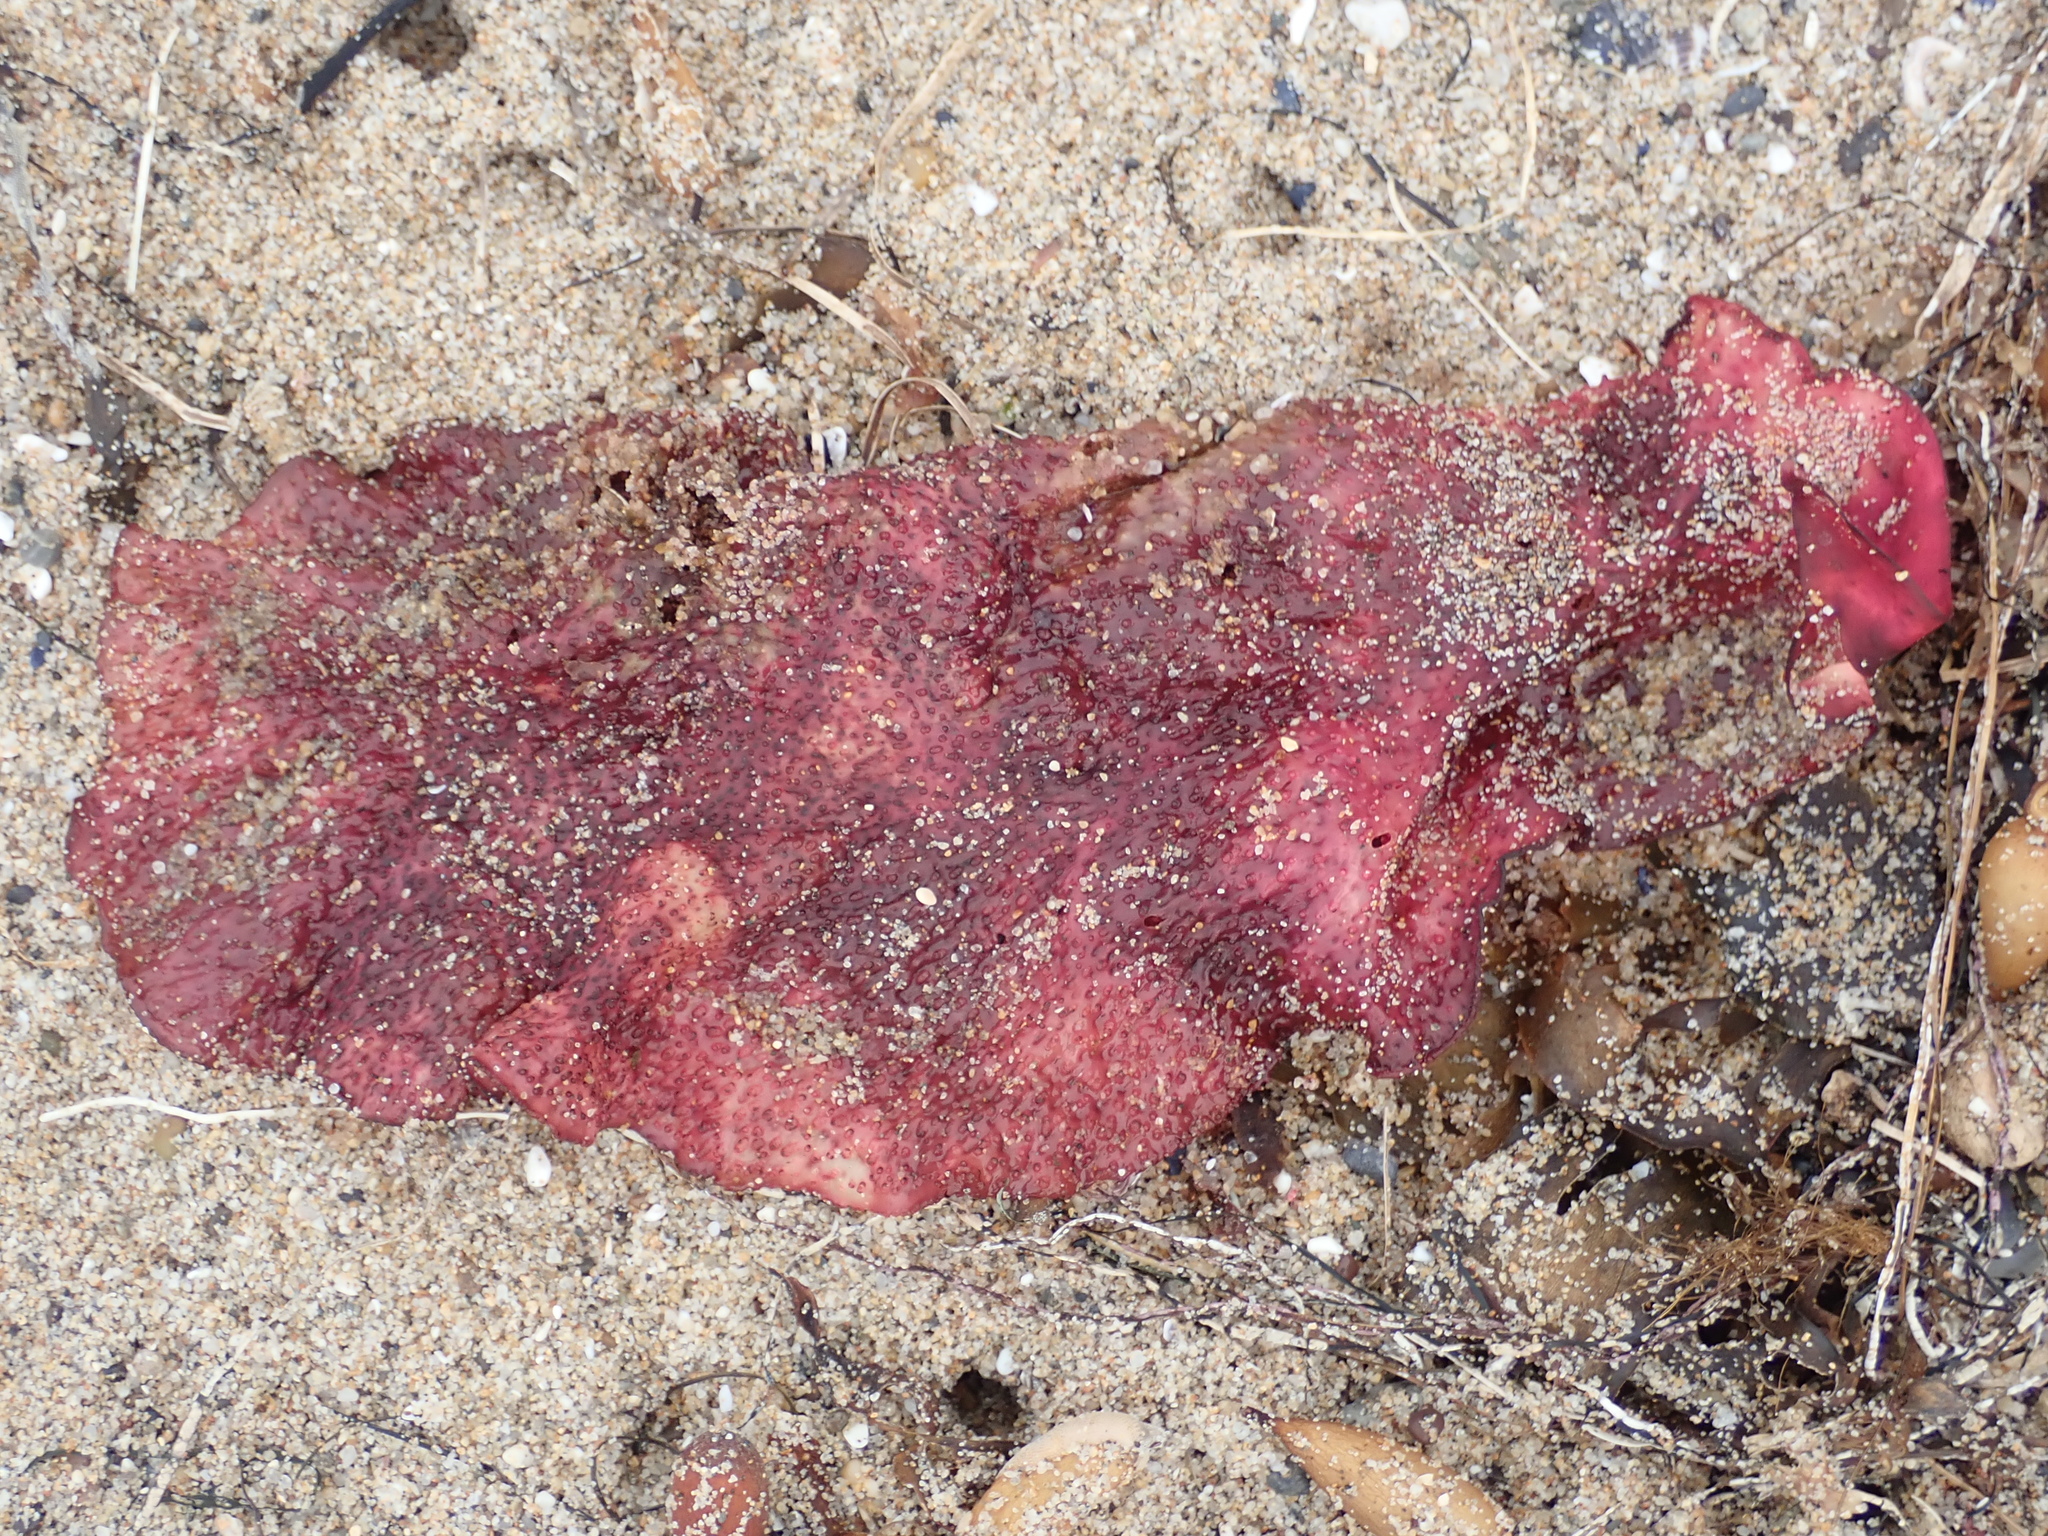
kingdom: Plantae
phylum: Rhodophyta
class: Florideophyceae
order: Gigartinales
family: Gigartinaceae
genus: Chondracanthus
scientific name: Chondracanthus exasperatus
